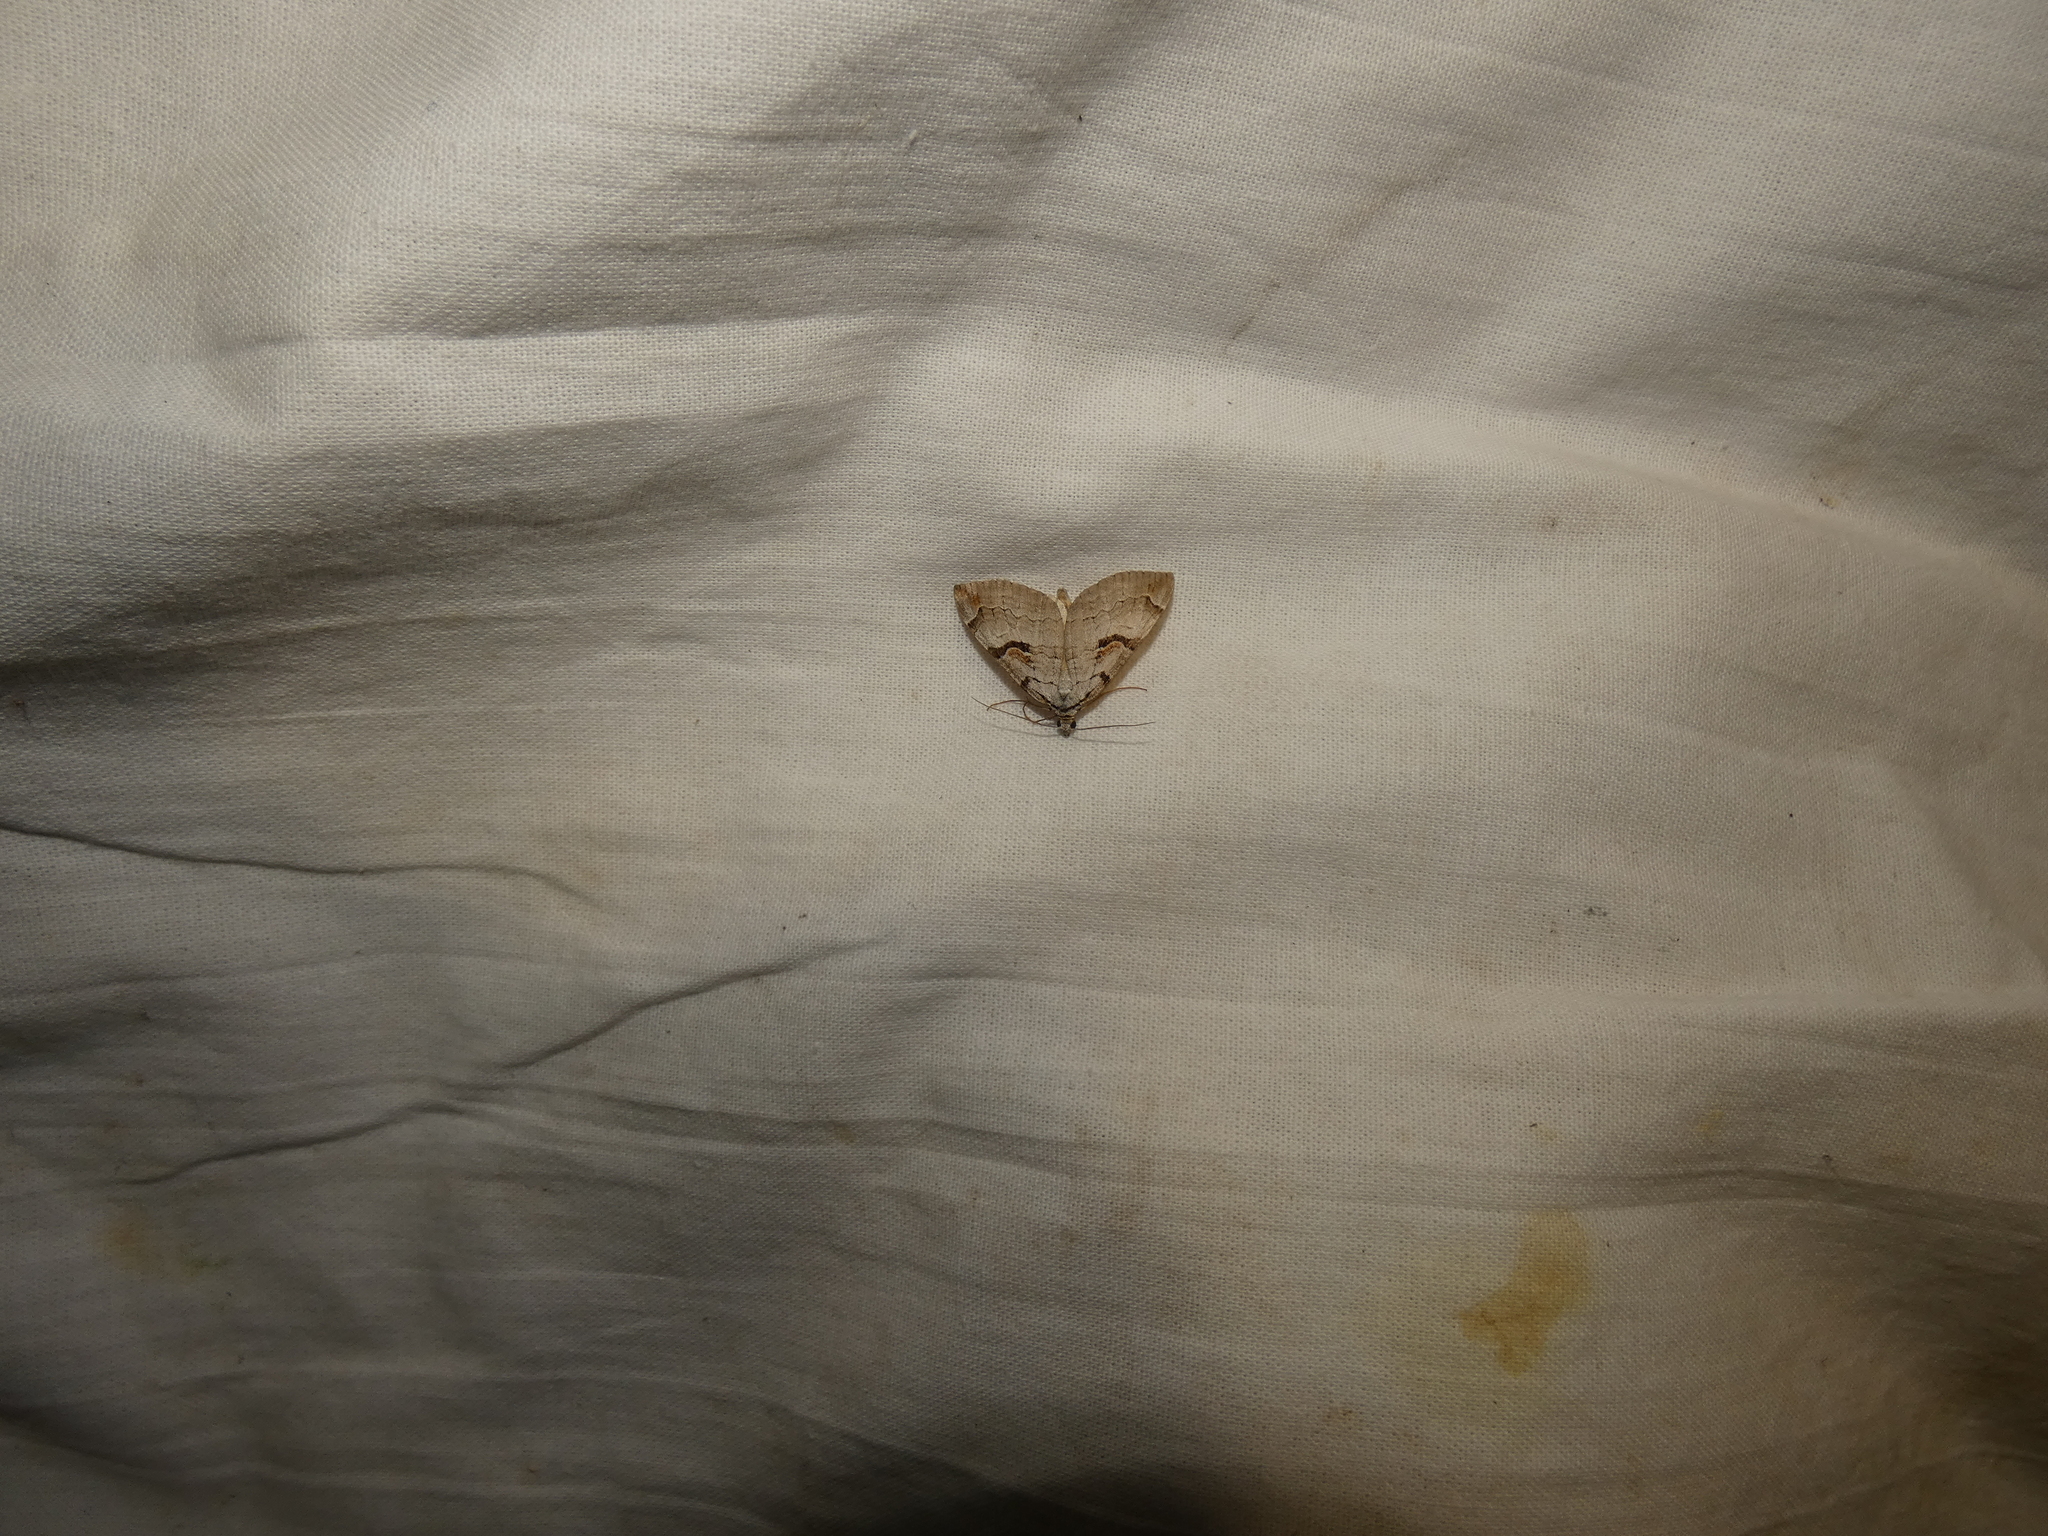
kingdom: Animalia
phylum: Arthropoda
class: Insecta
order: Lepidoptera
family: Geometridae
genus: Aplocera
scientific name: Aplocera praeformata
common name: Purple treble-bar
